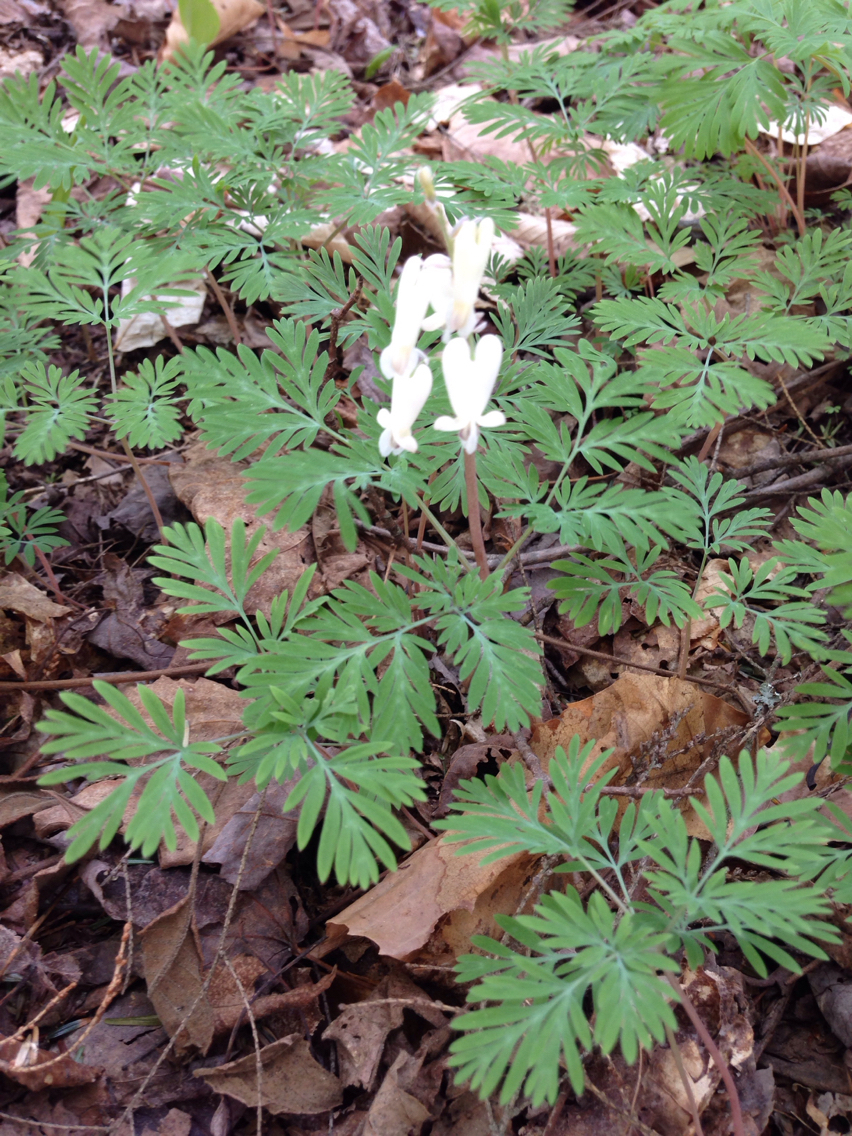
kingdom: Plantae
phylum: Tracheophyta
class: Magnoliopsida
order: Ranunculales
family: Papaveraceae
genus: Dicentra
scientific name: Dicentra canadensis
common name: Squirrel-corn
